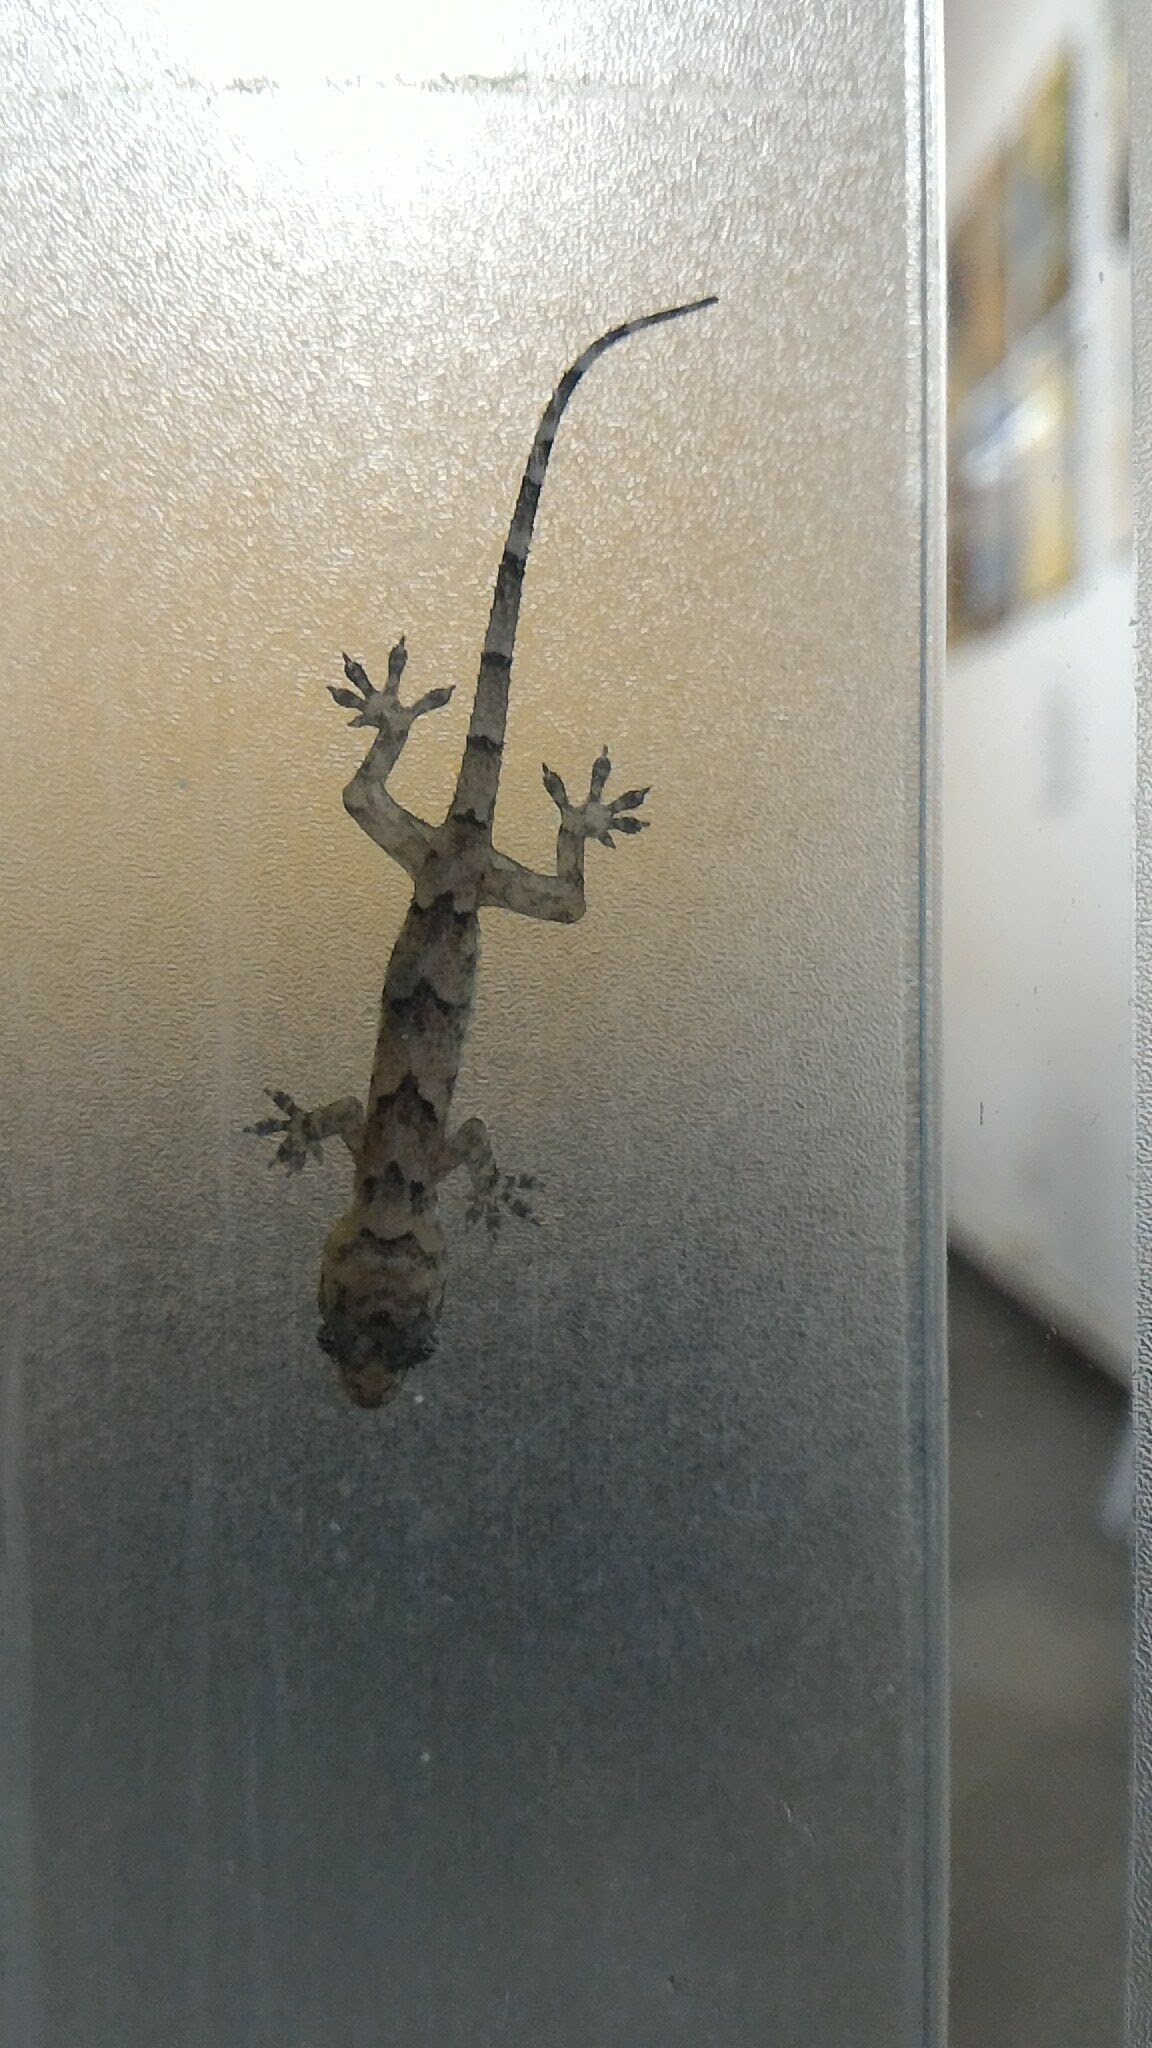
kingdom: Animalia
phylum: Chordata
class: Squamata
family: Gekkonidae
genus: Hemidactylus
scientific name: Hemidactylus mabouia
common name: House gecko
